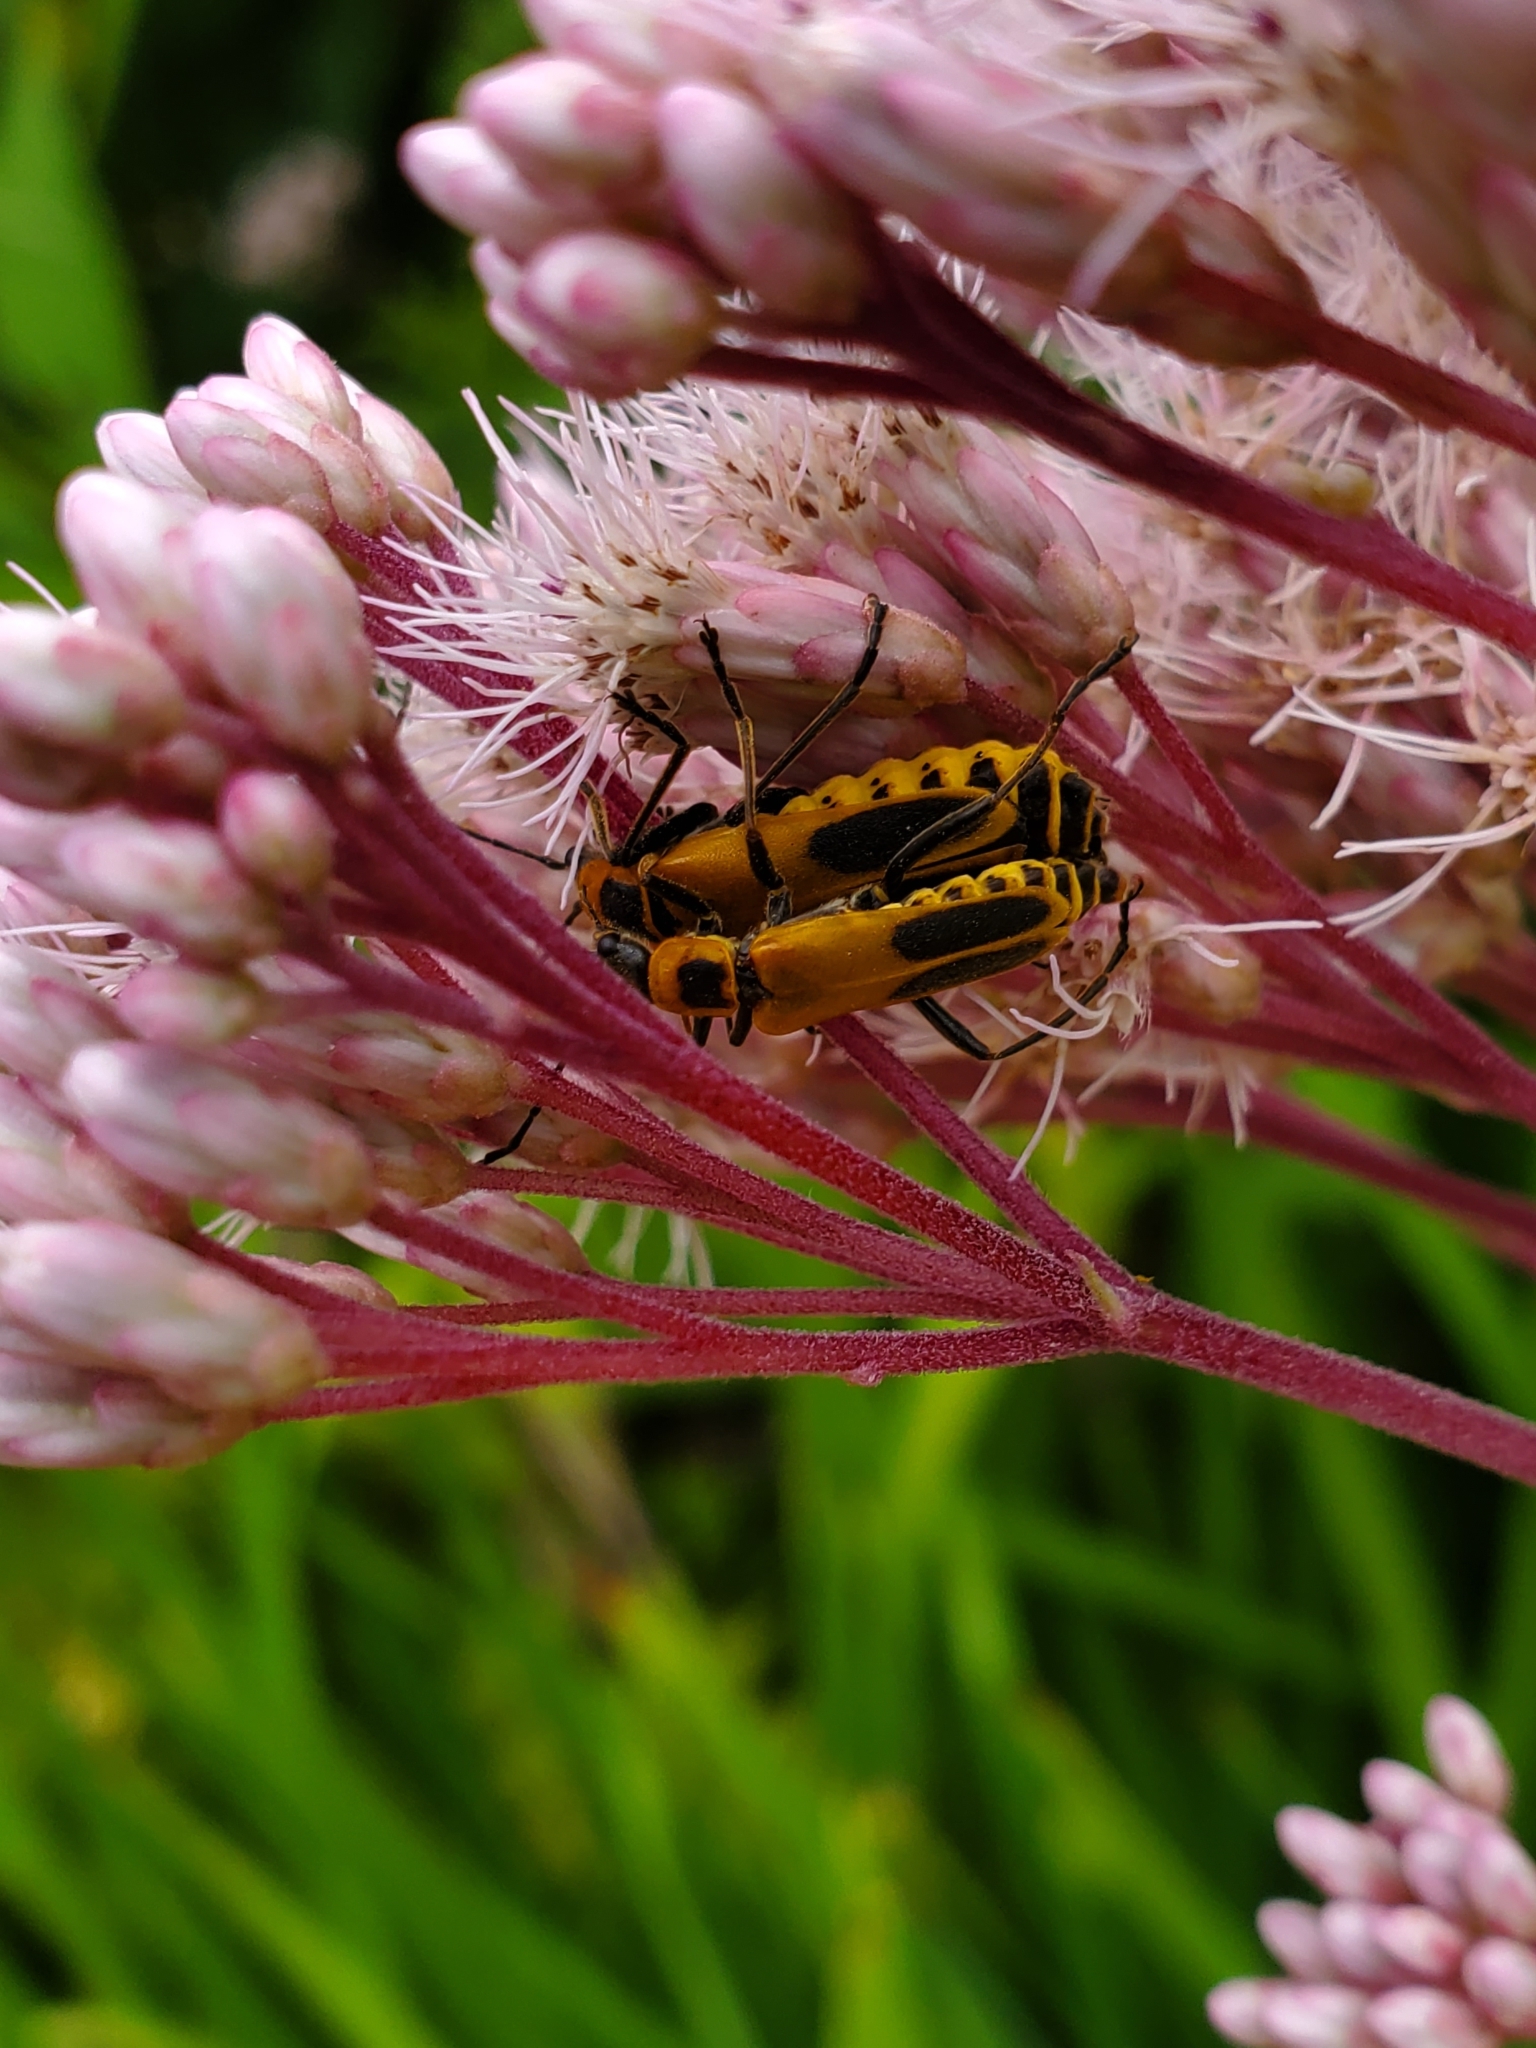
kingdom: Animalia
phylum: Arthropoda
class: Insecta
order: Coleoptera
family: Cantharidae
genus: Chauliognathus
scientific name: Chauliognathus pensylvanicus
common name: Goldenrod soldier beetle
